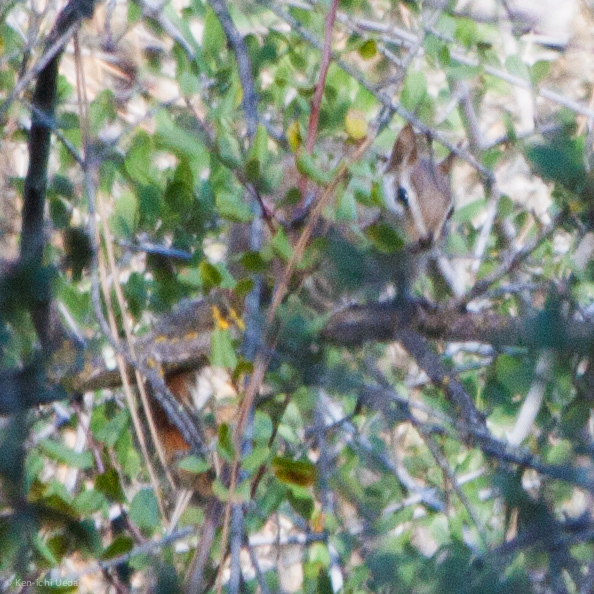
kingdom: Animalia
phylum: Chordata
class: Mammalia
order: Rodentia
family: Sciuridae
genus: Tamias
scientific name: Tamias merriami
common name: Merriam's chipmunk
